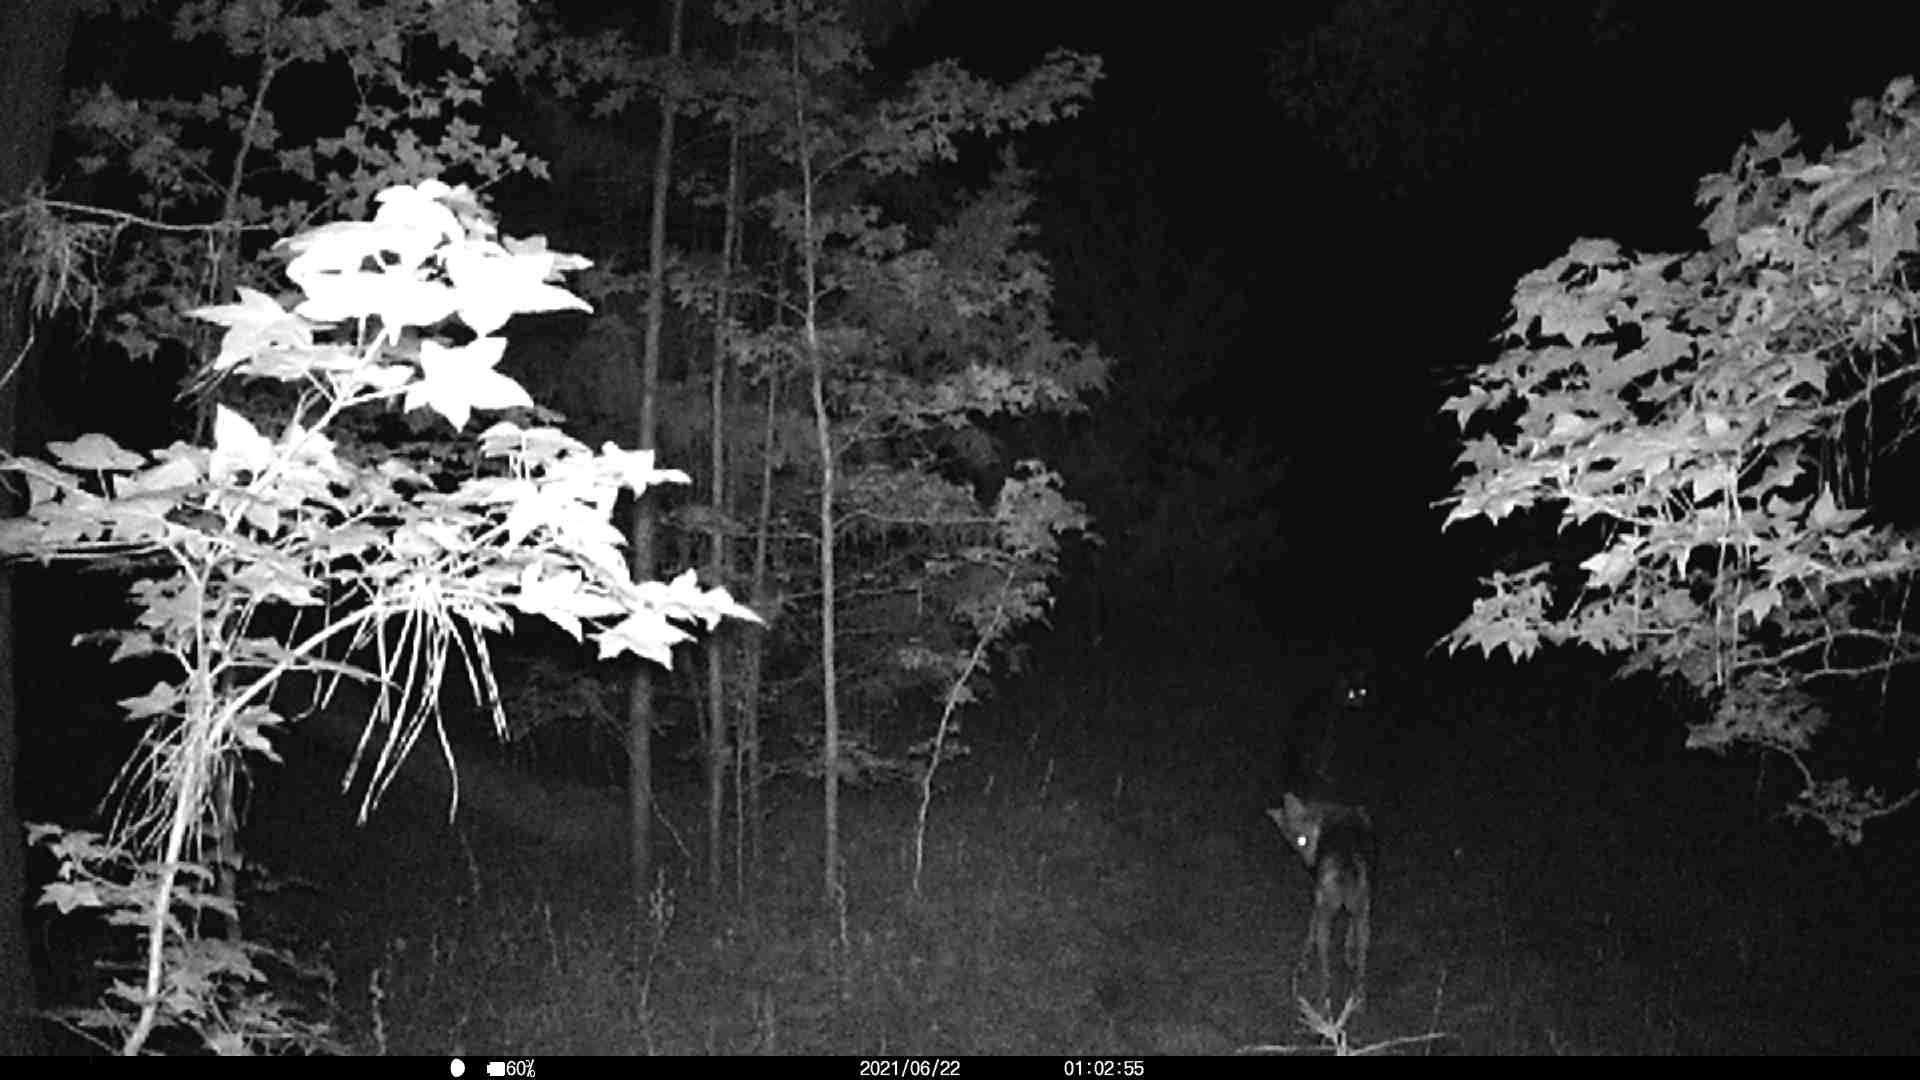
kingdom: Animalia
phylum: Chordata
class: Mammalia
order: Carnivora
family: Canidae
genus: Canis
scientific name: Canis latrans
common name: Coyote
